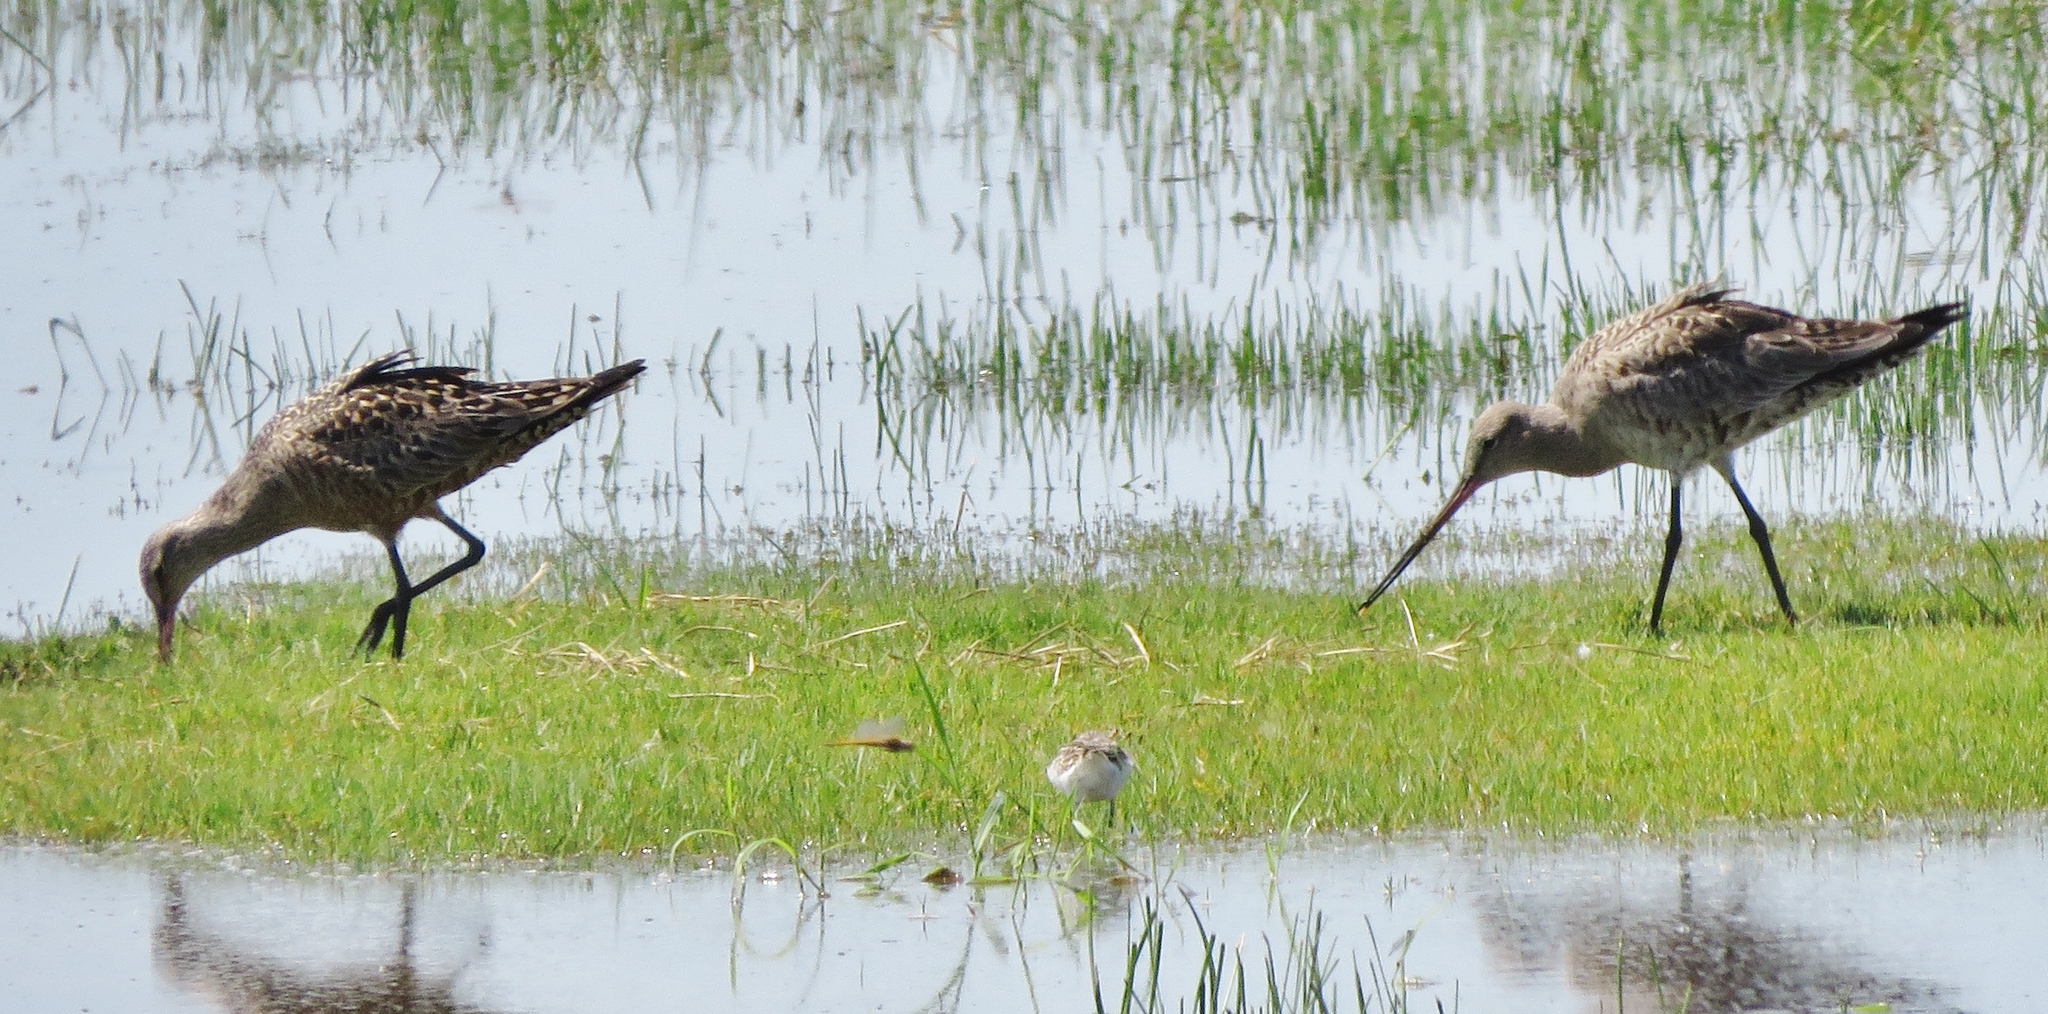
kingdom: Animalia
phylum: Chordata
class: Aves
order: Charadriiformes
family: Scolopacidae
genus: Limosa
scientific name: Limosa haemastica
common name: Hudsonian godwit
